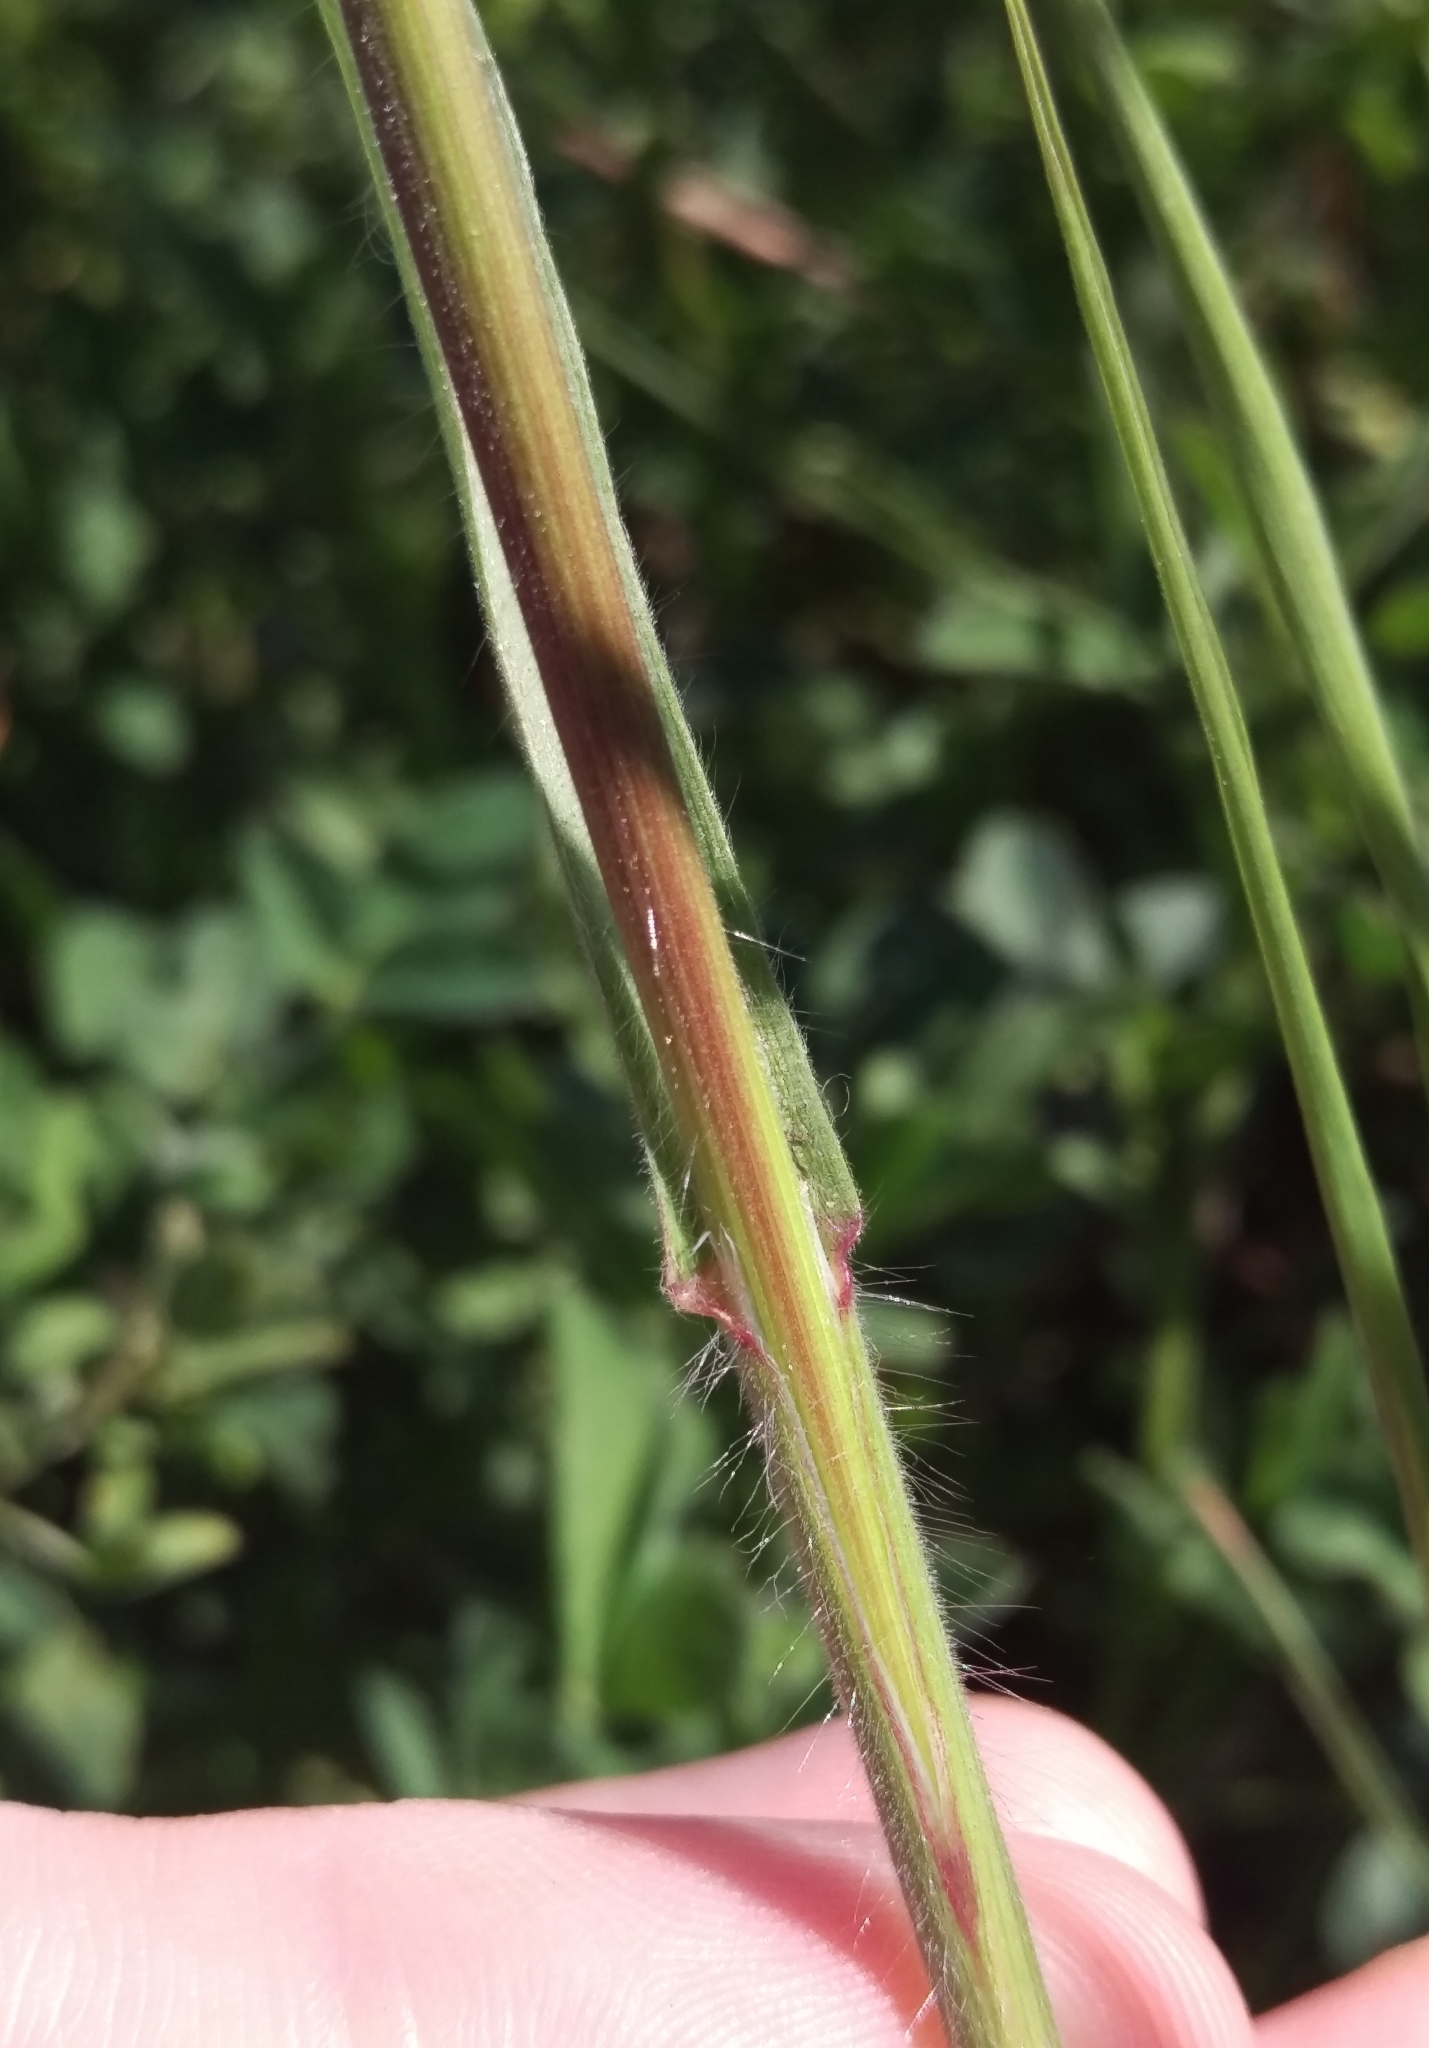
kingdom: Plantae
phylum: Tracheophyta
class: Liliopsida
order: Poales
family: Poaceae
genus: Bromus
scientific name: Bromus tectorum
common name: Cheatgrass
